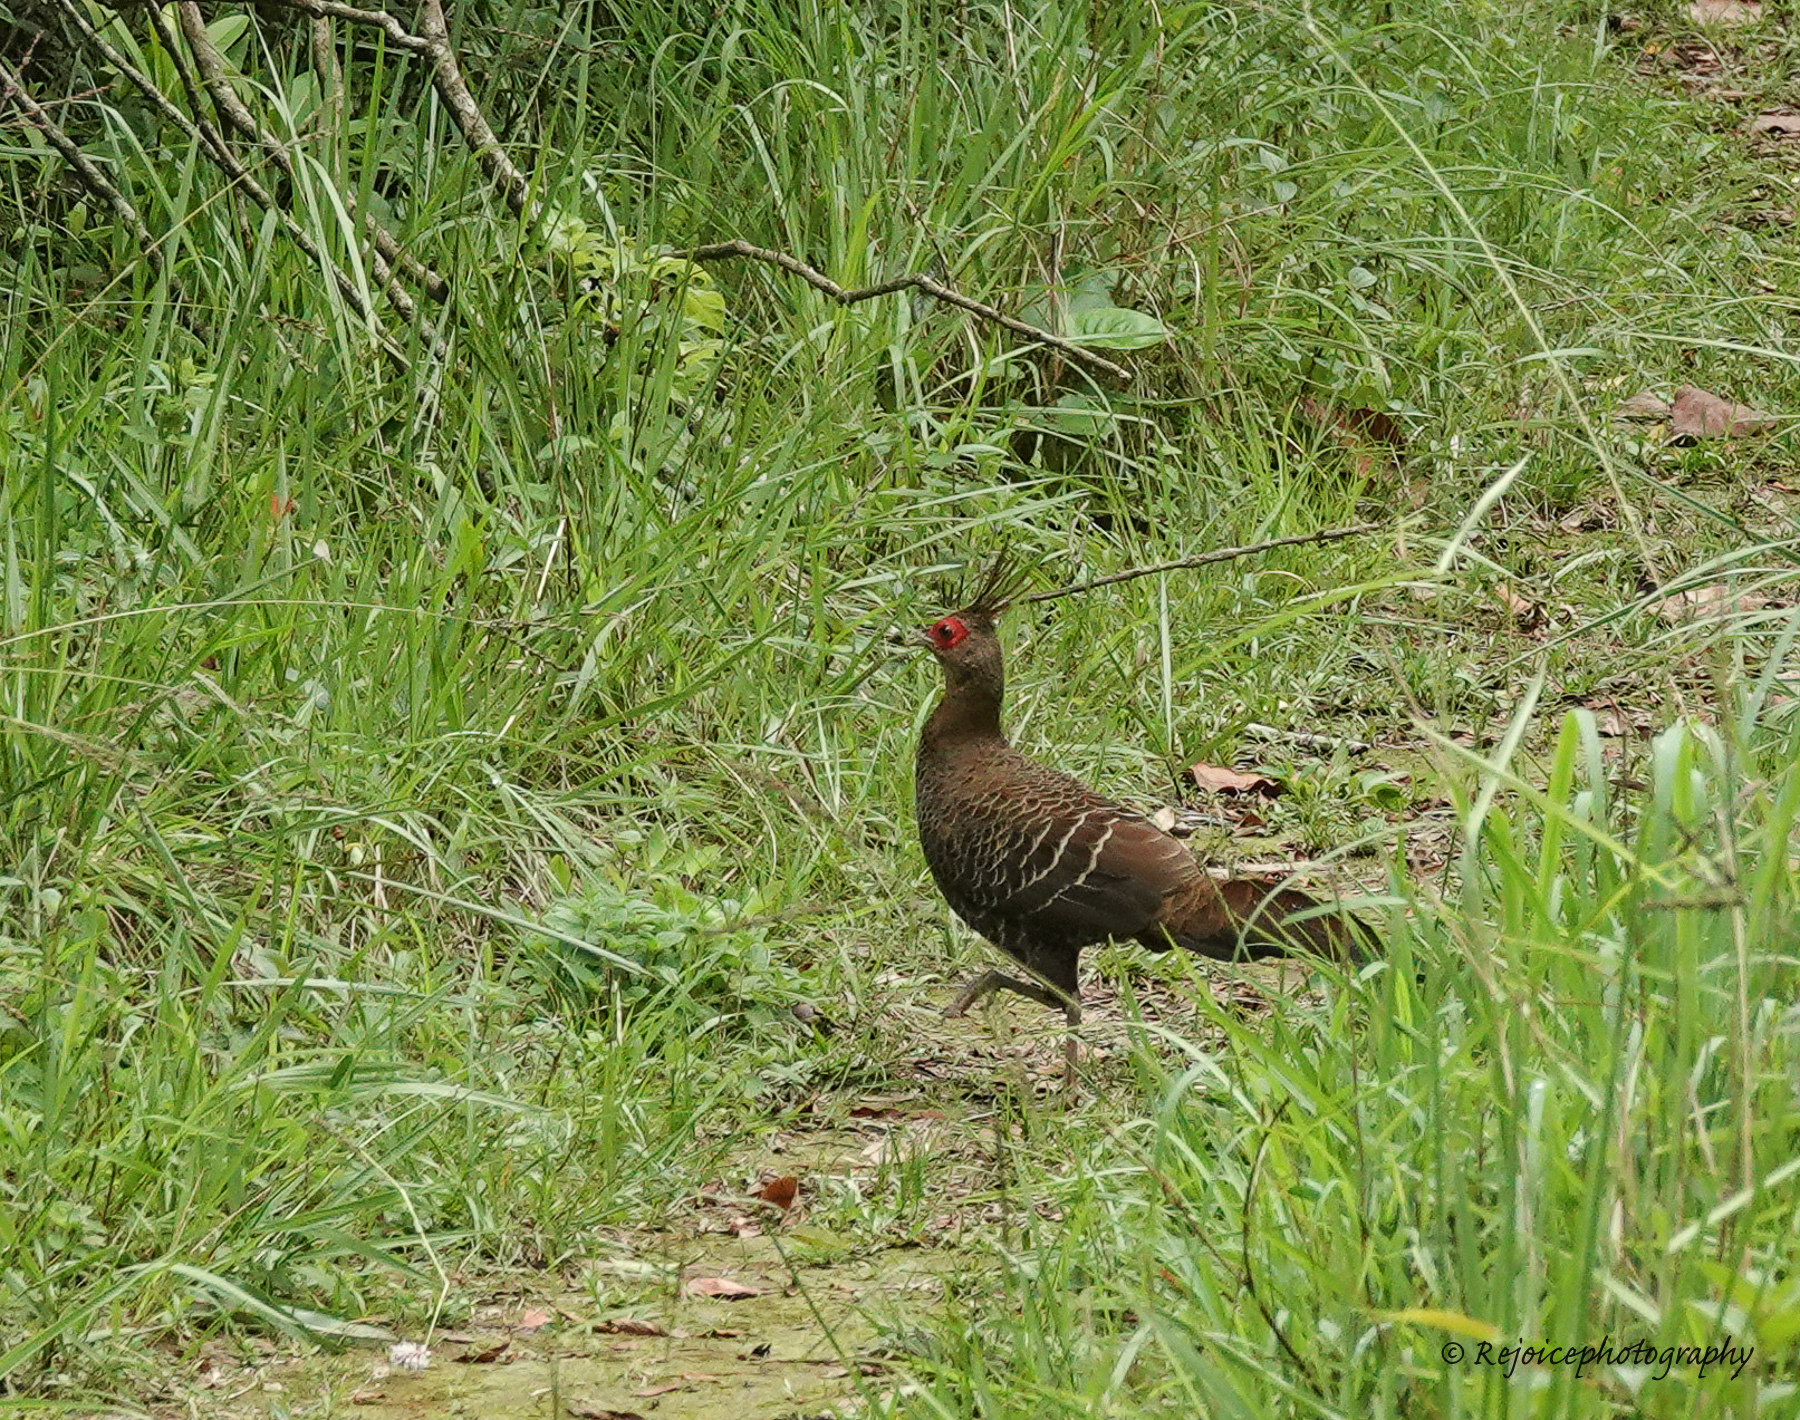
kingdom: Animalia
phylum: Chordata
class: Aves
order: Galliformes
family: Phasianidae
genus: Lophura
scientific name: Lophura leucomelanos
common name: Kalij pheasant
